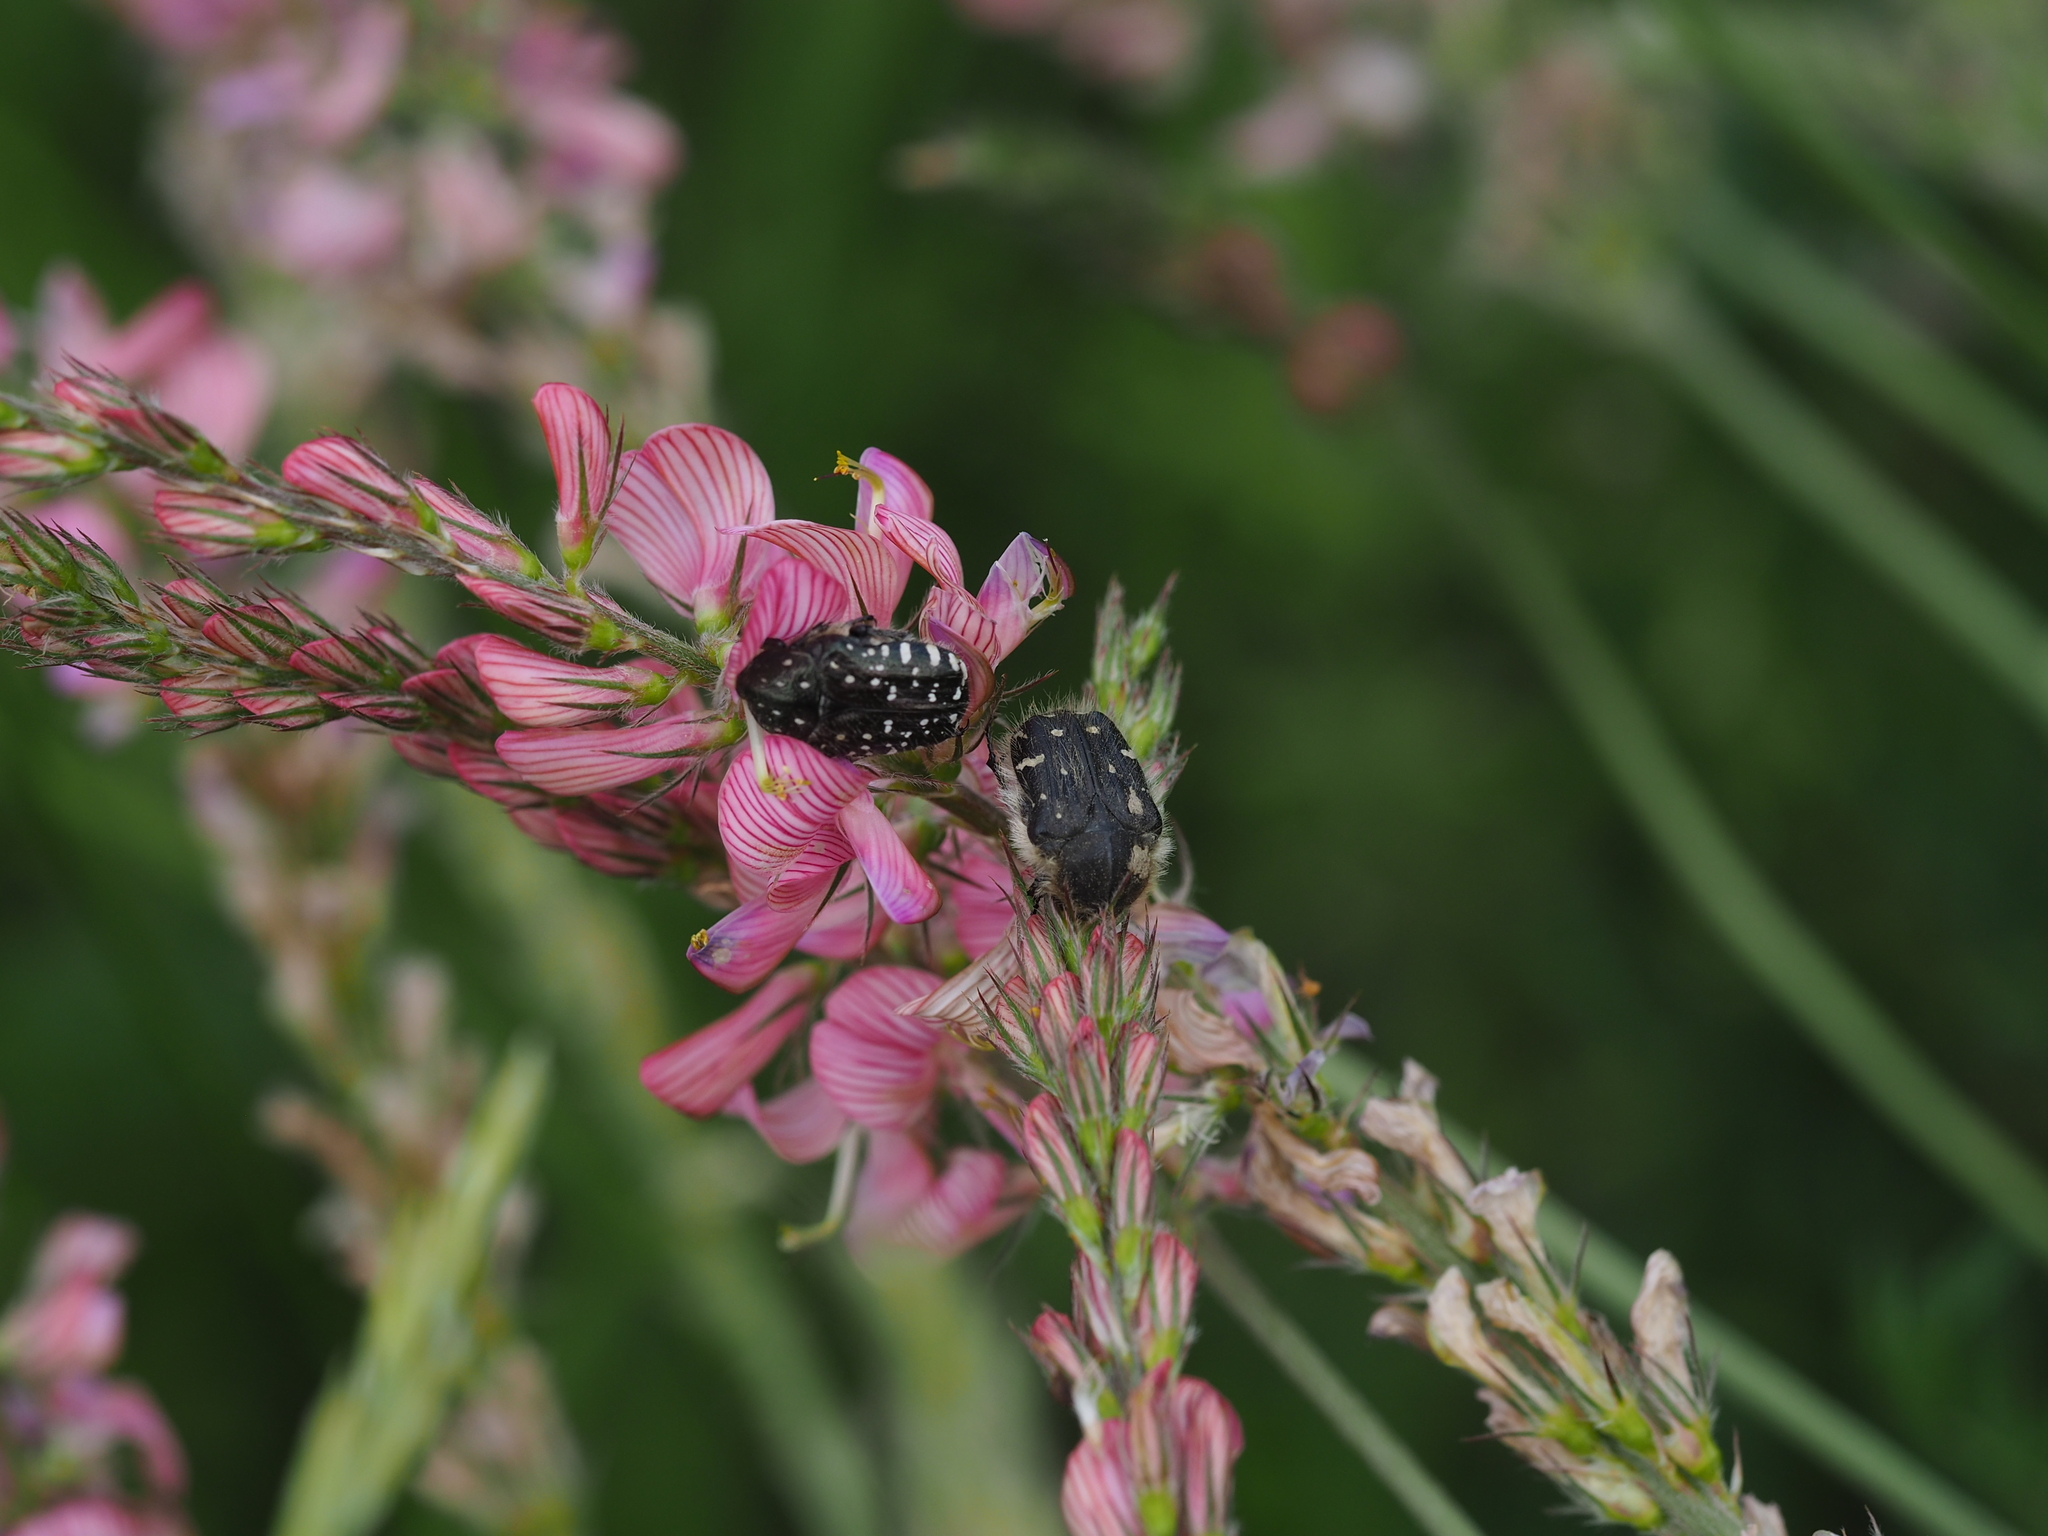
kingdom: Animalia
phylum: Arthropoda
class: Insecta
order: Coleoptera
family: Scarabaeidae
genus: Tropinota
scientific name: Tropinota hirta
